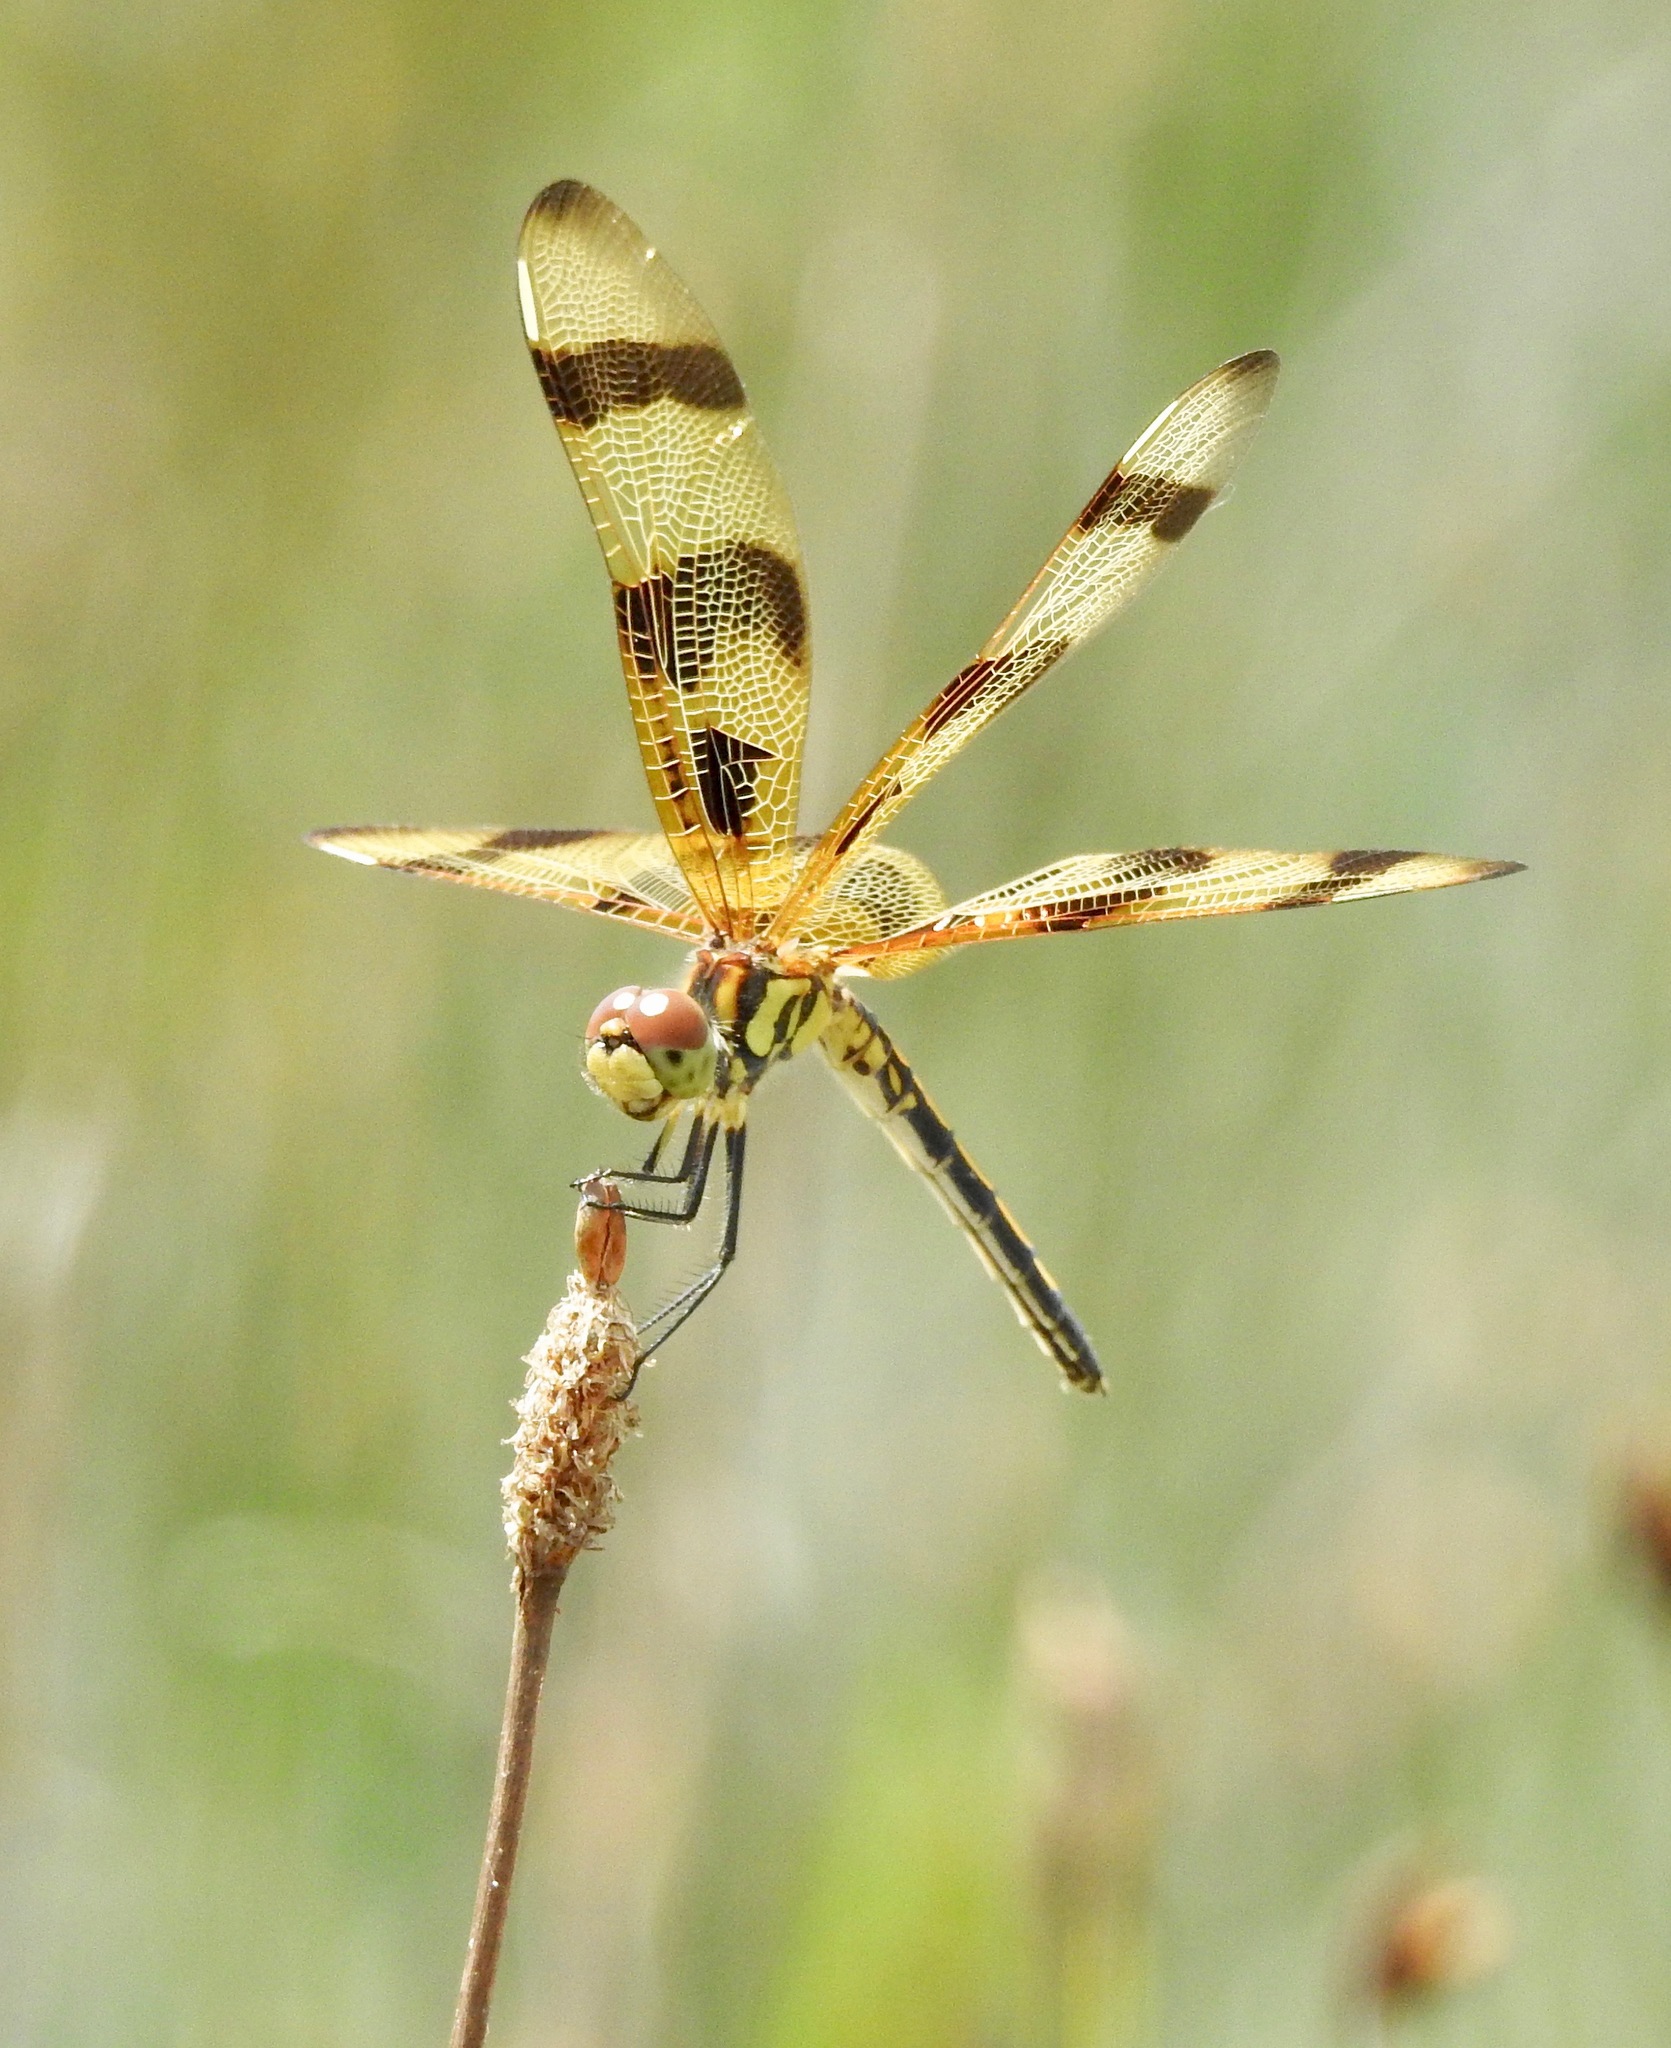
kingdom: Animalia
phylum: Arthropoda
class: Insecta
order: Odonata
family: Libellulidae
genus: Celithemis
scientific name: Celithemis eponina
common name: Halloween pennant
